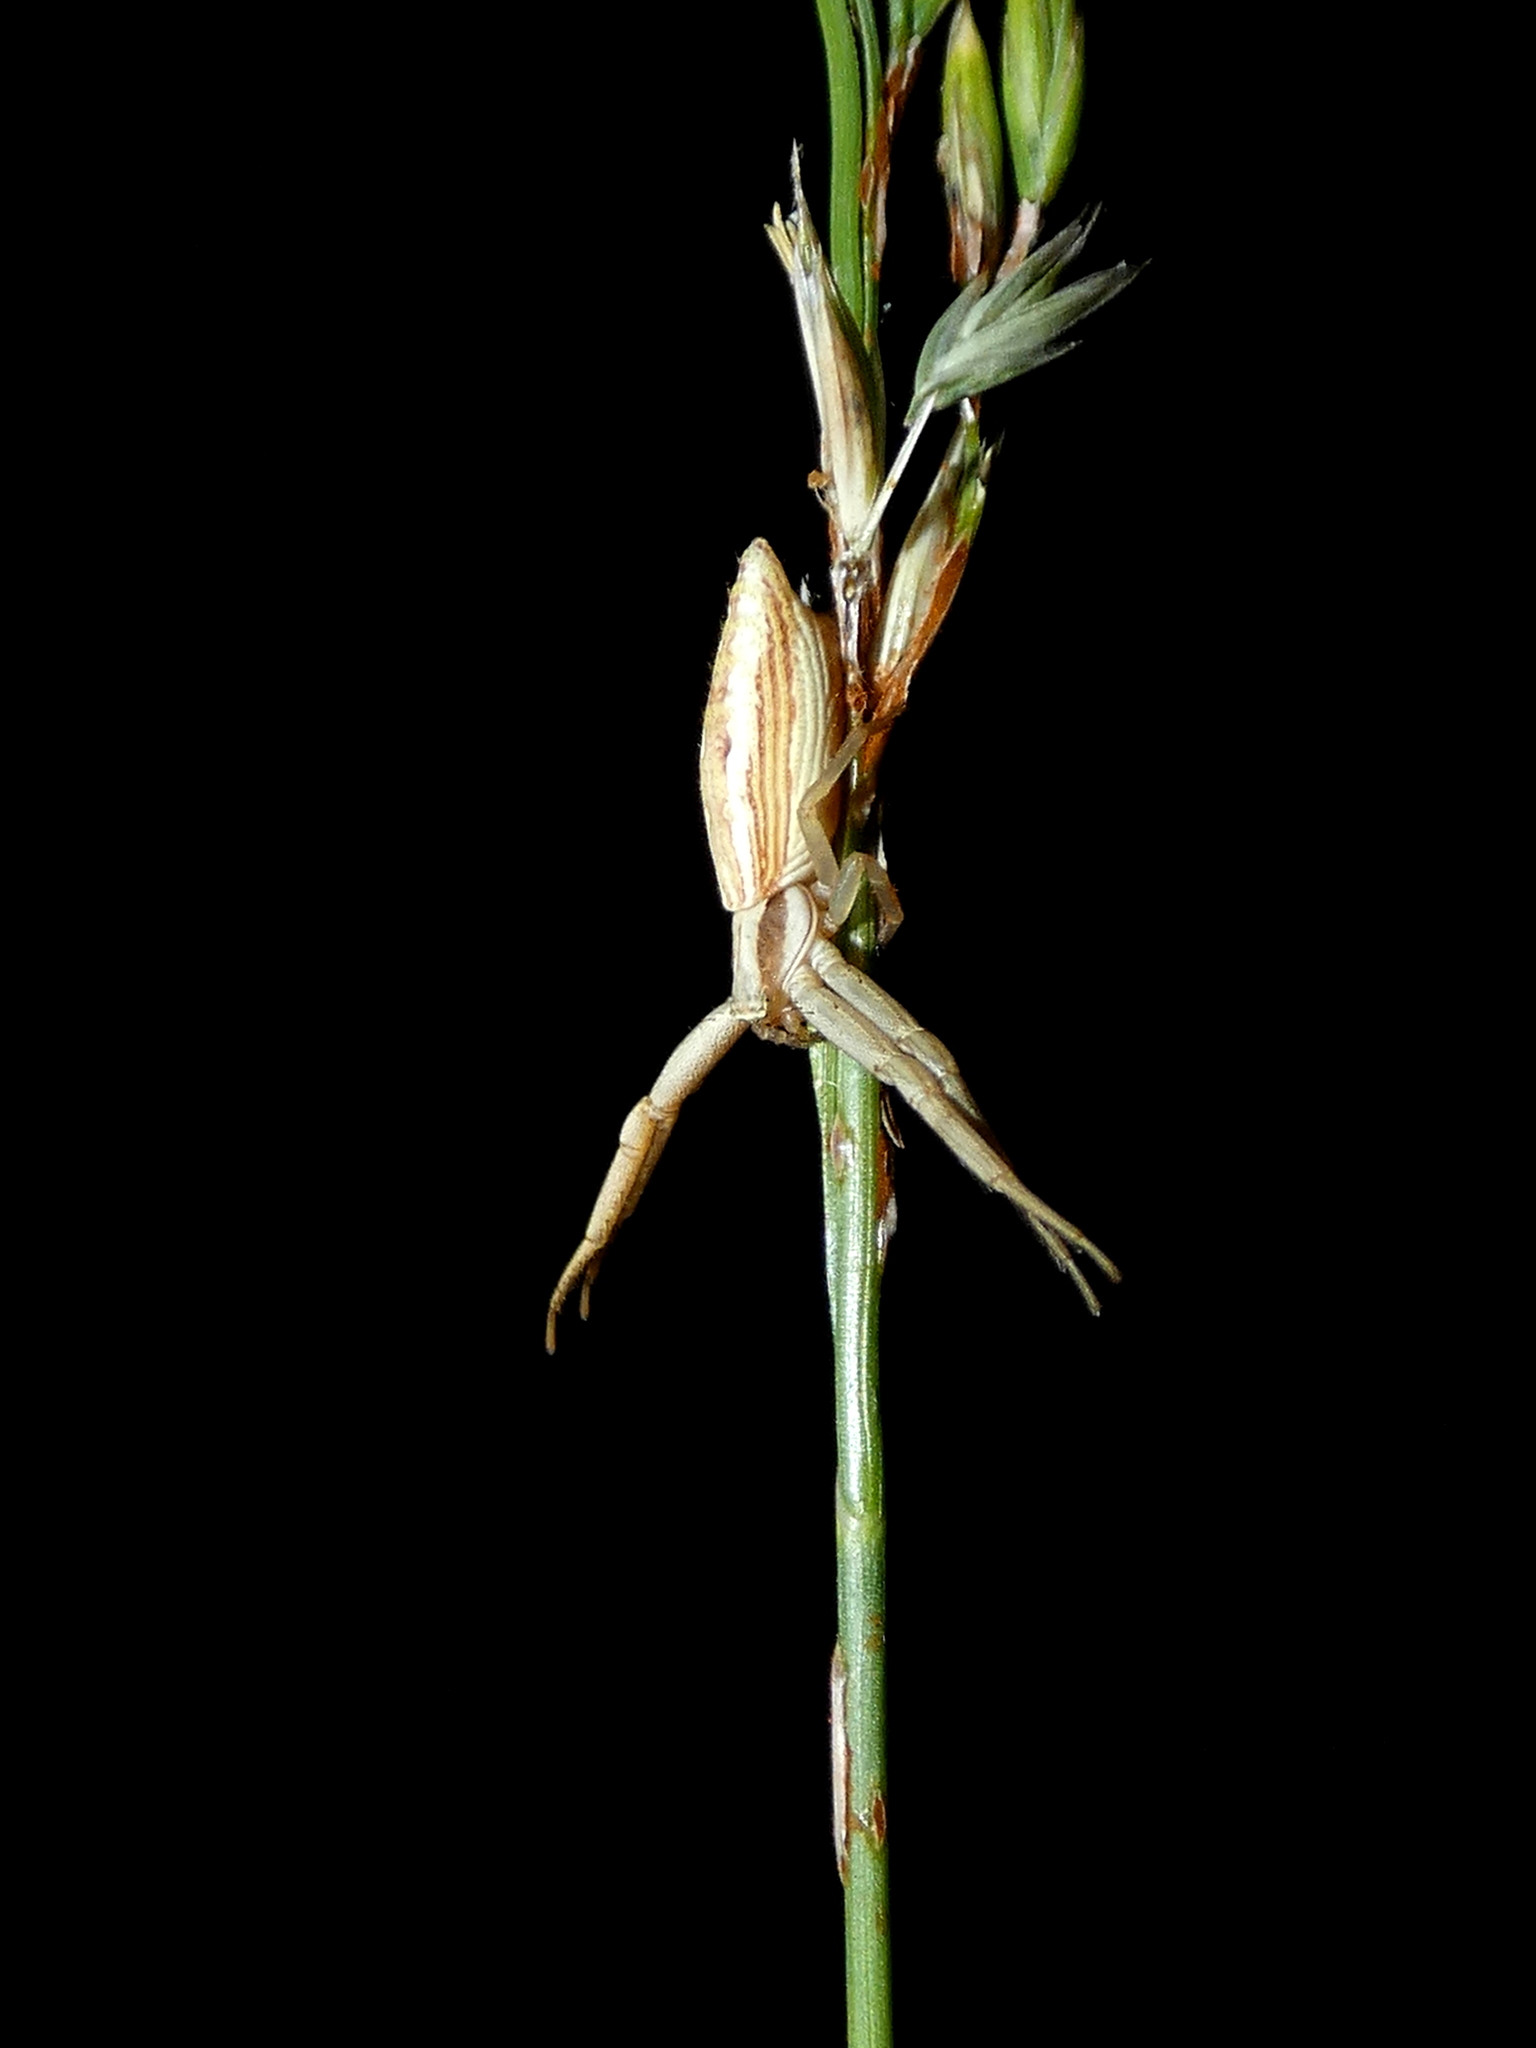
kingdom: Animalia
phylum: Arthropoda
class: Arachnida
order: Araneae
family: Thomisidae
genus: Runcinia
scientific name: Runcinia acuminata
